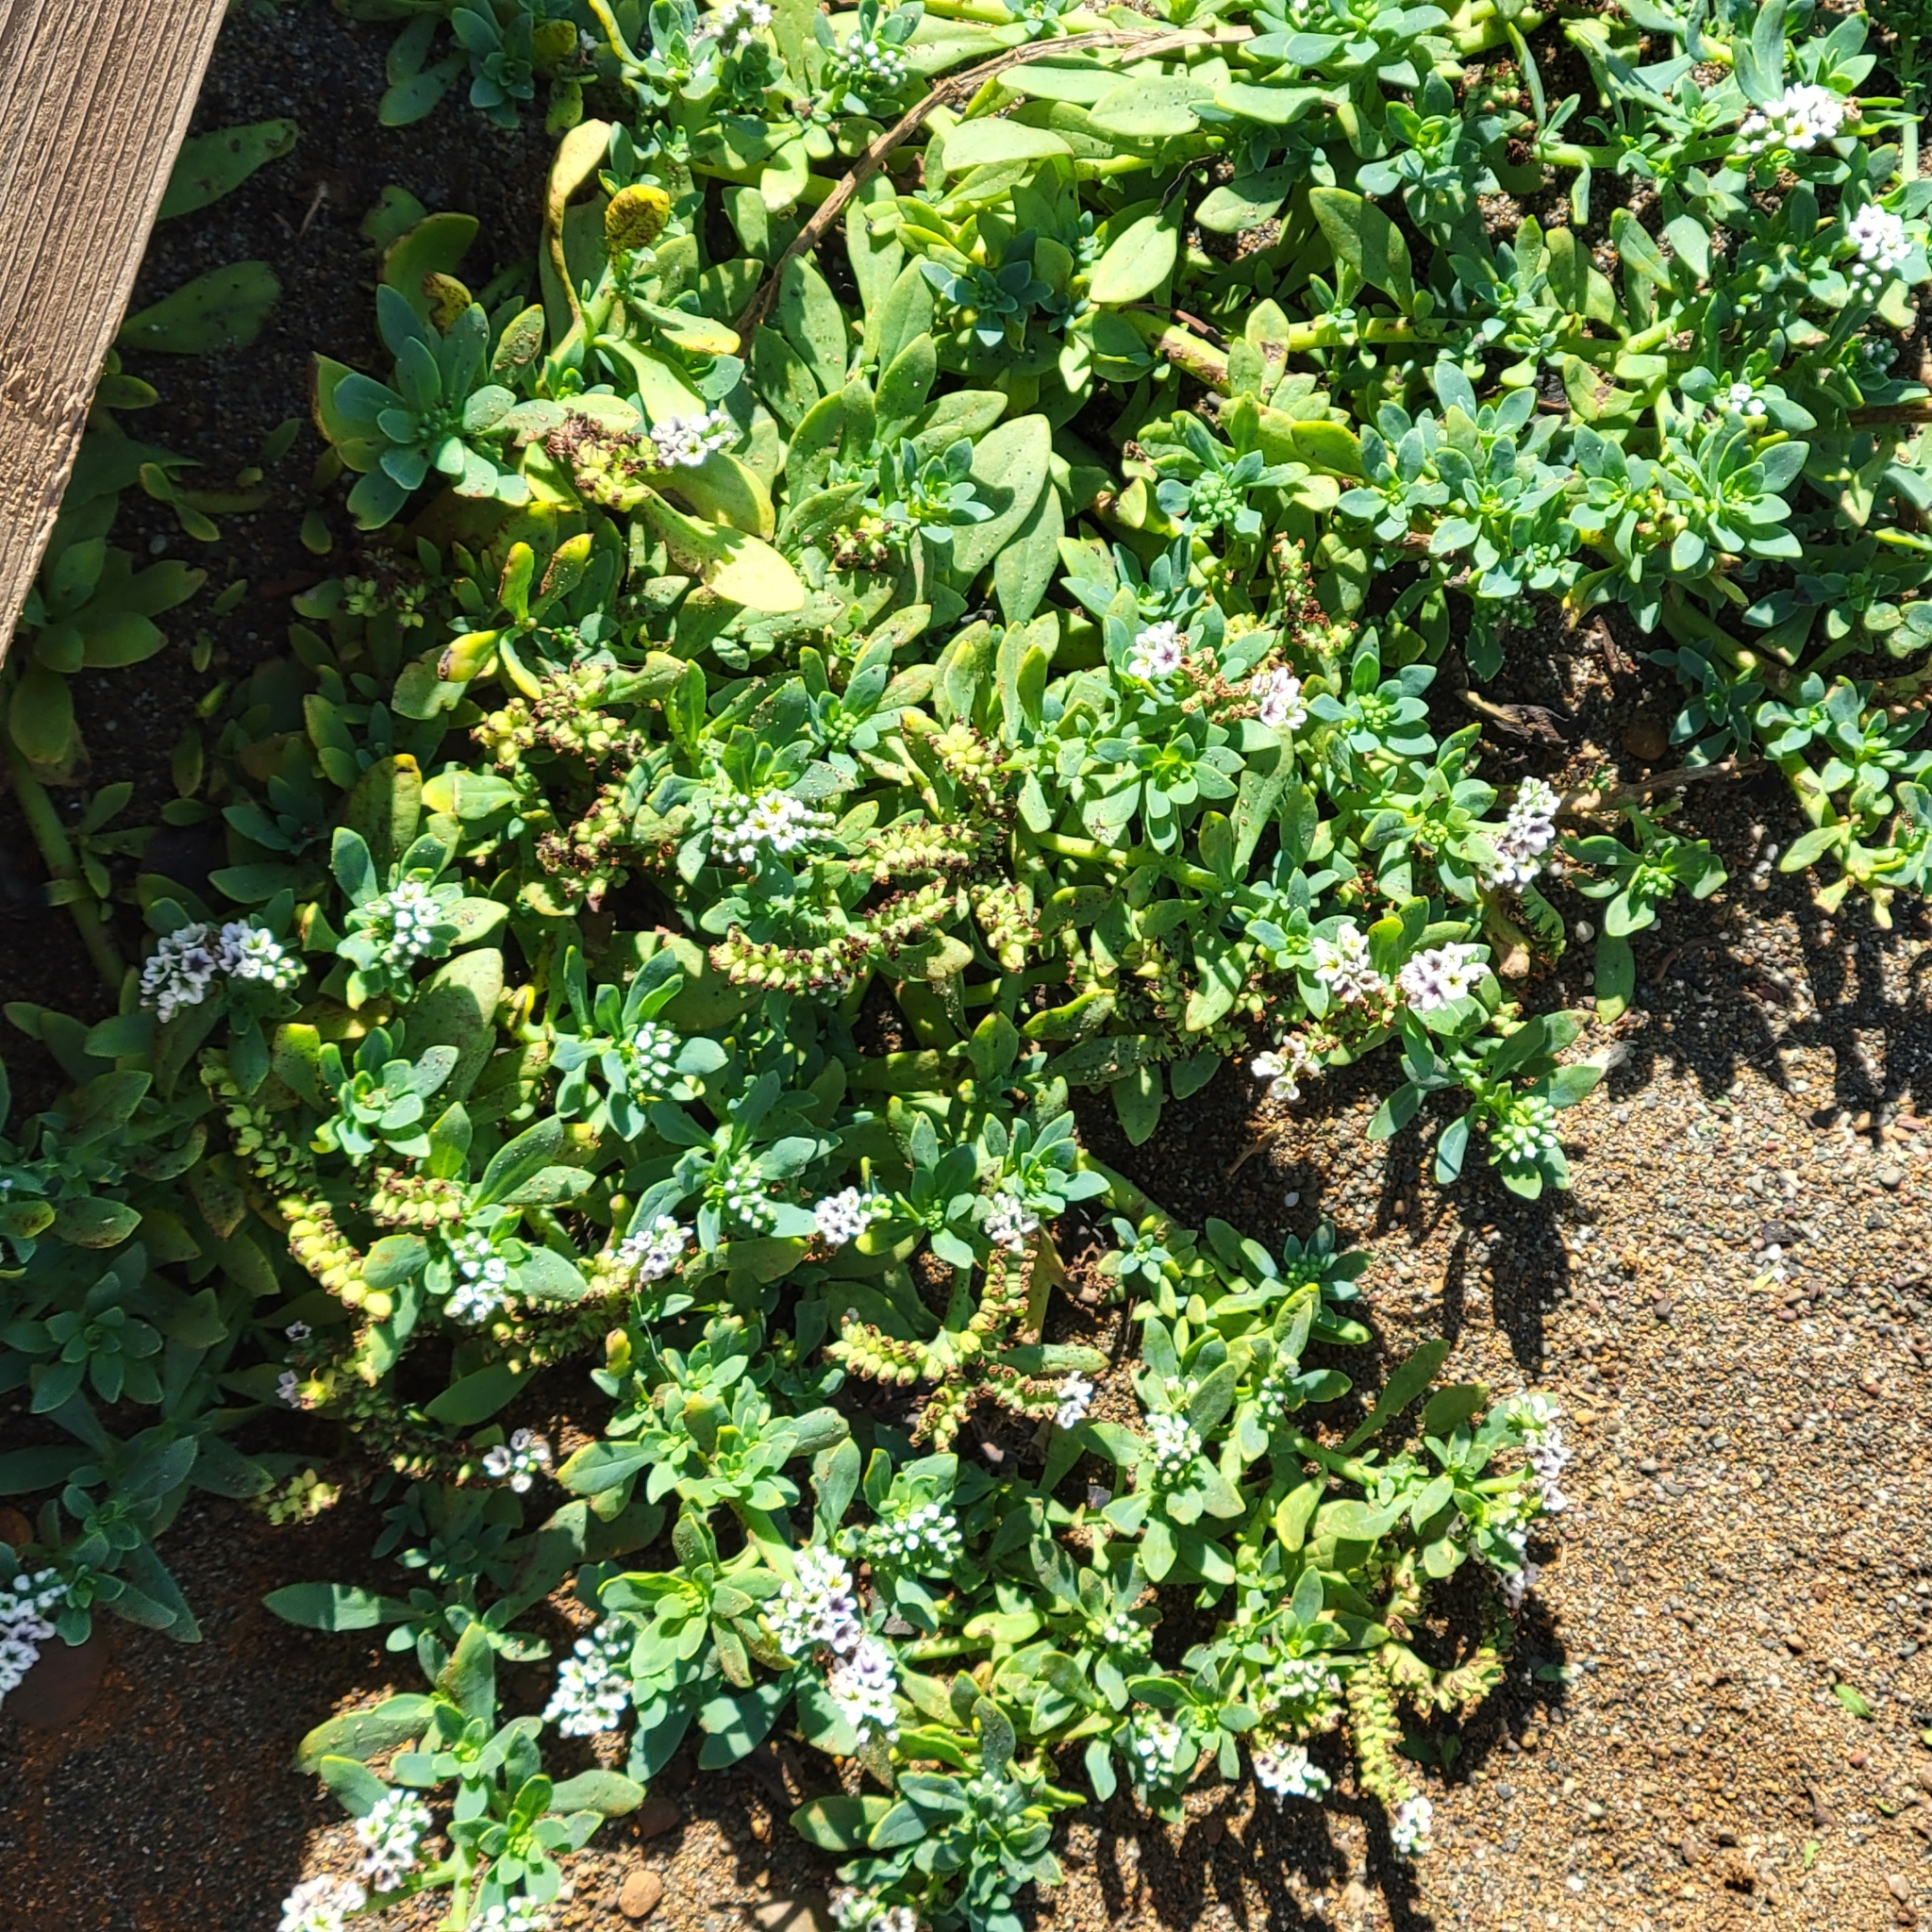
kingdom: Plantae
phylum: Tracheophyta
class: Magnoliopsida
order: Boraginales
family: Heliotropiaceae
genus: Heliotropium
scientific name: Heliotropium curassavicum
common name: Seaside heliotrope
